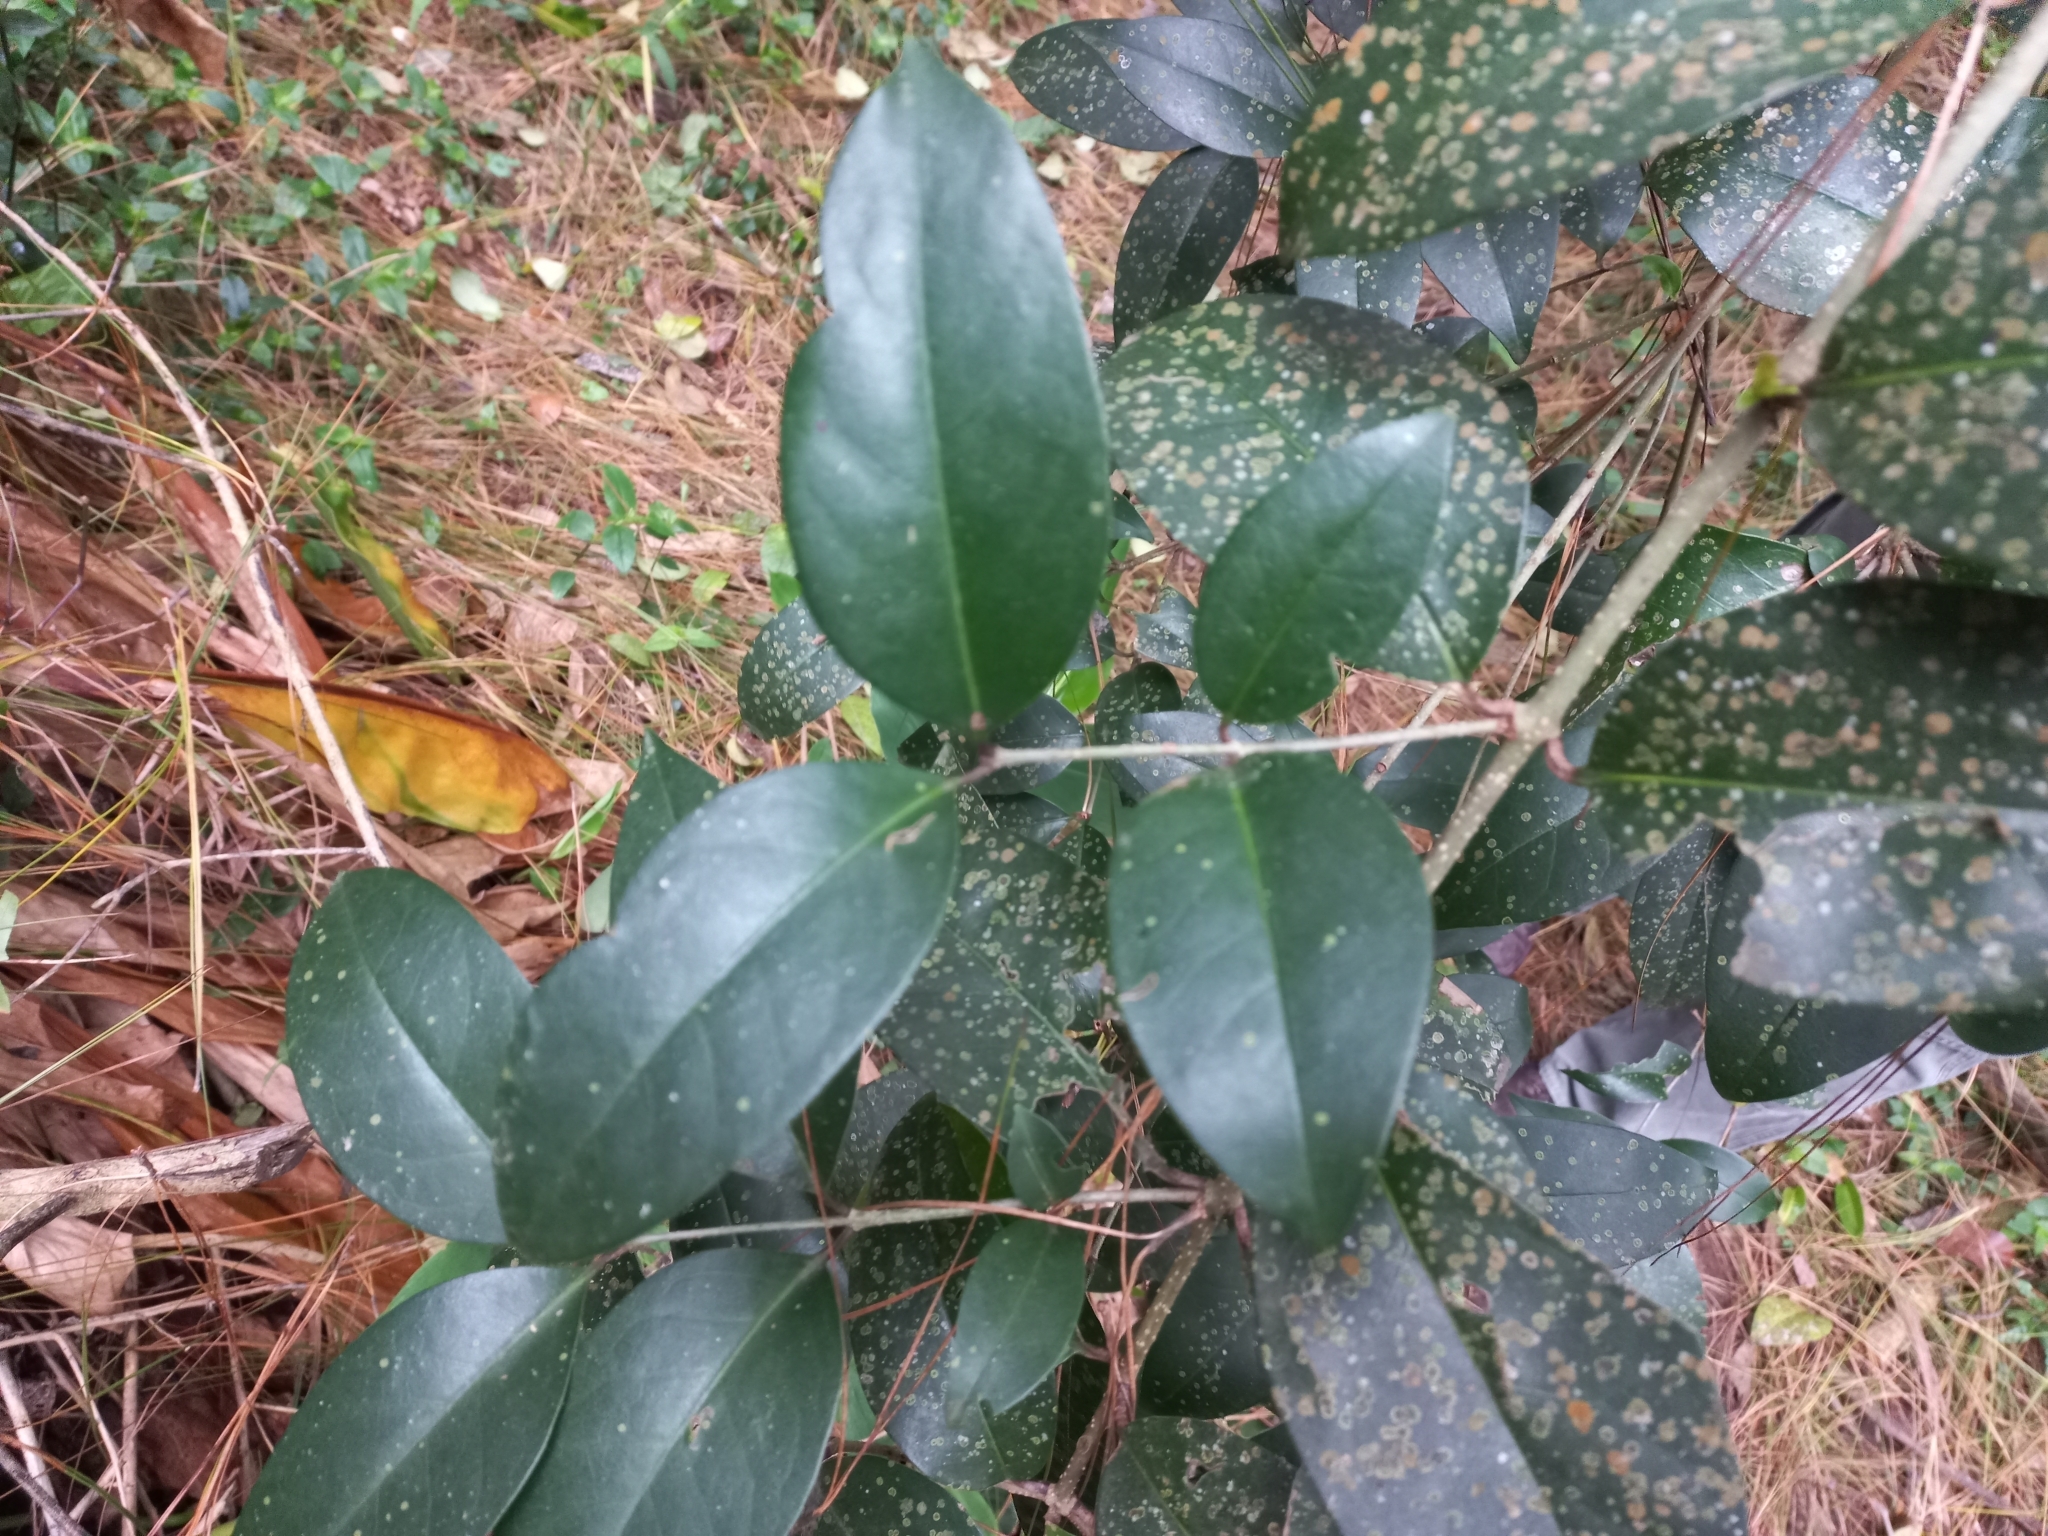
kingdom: Plantae
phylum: Tracheophyta
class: Magnoliopsida
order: Lamiales
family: Oleaceae
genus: Ligustrum
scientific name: Ligustrum lucidum
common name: Glossy privet
